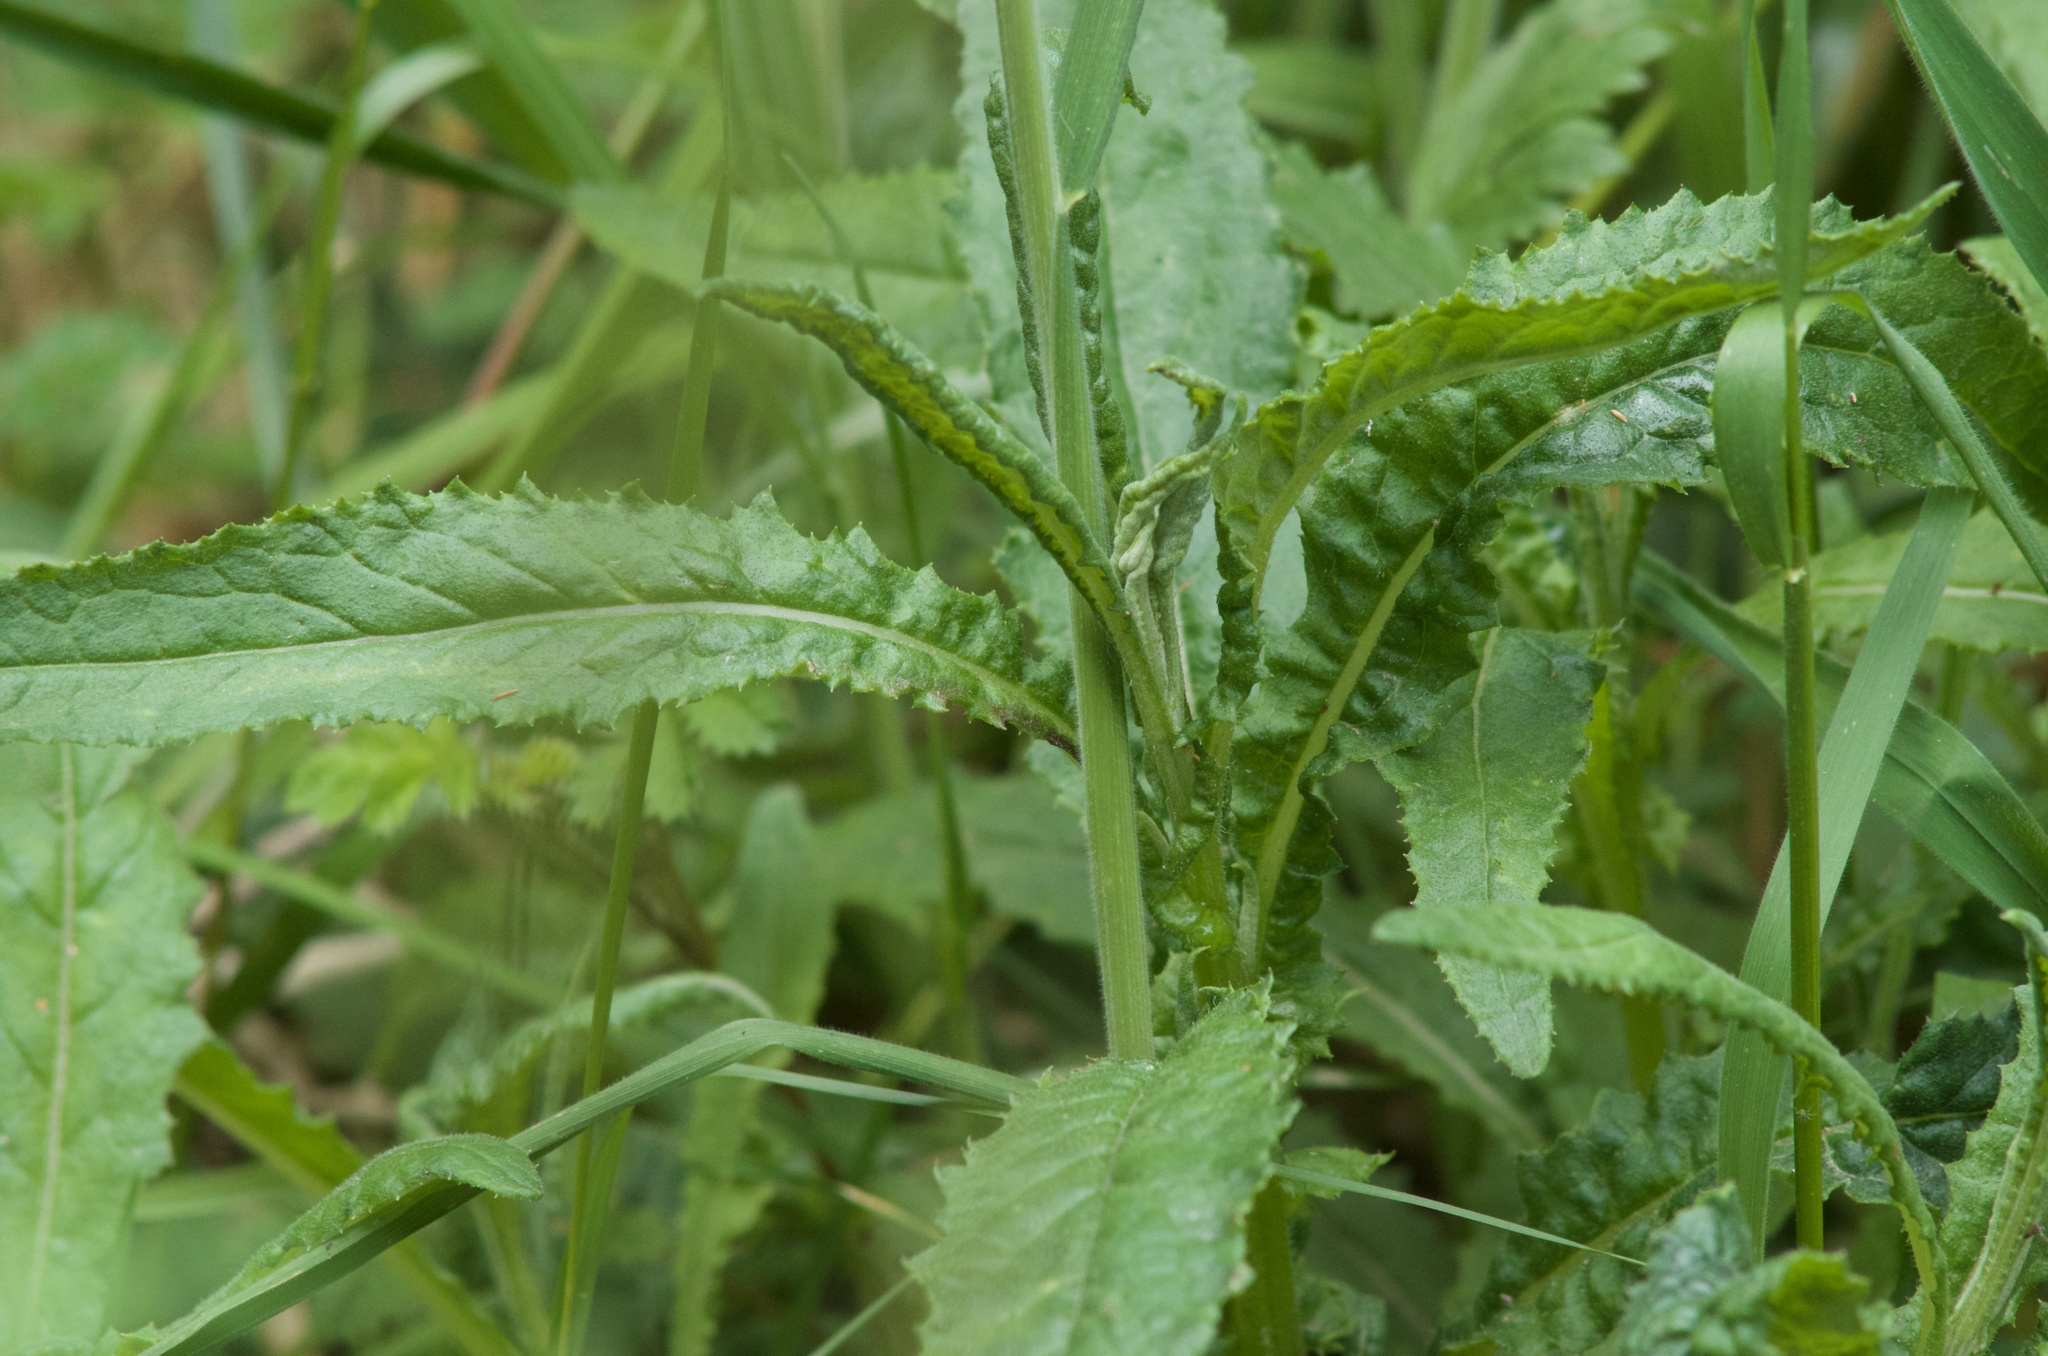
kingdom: Plantae
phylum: Tracheophyta
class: Magnoliopsida
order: Asterales
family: Asteraceae
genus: Senecio
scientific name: Senecio minimus
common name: Toothed fireweed
